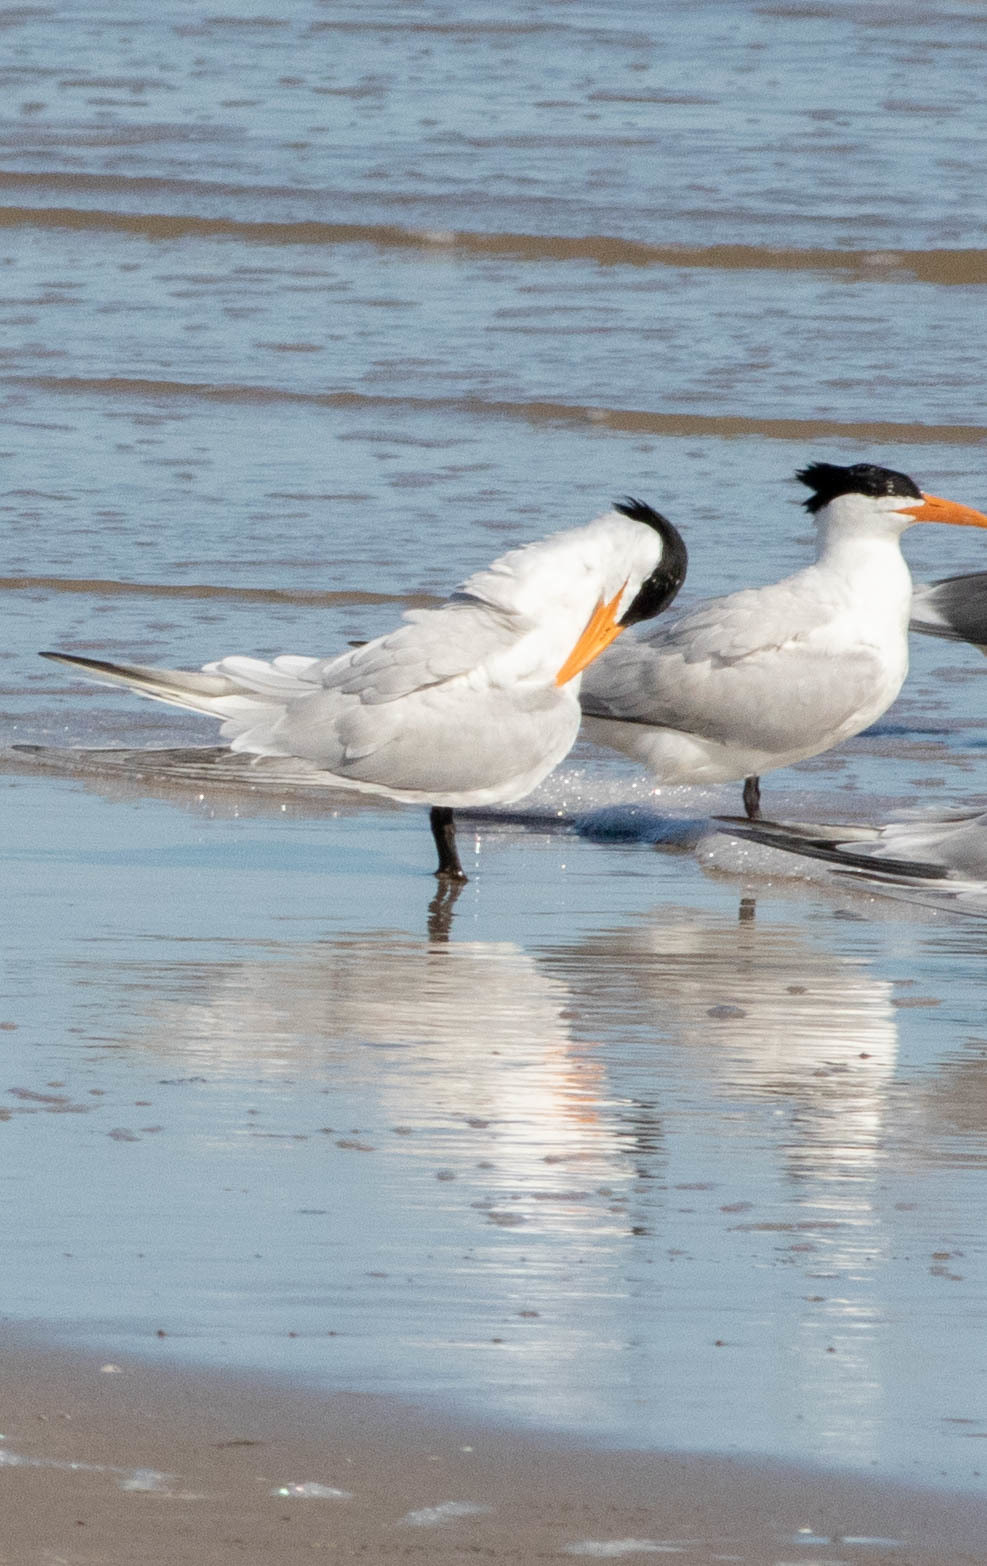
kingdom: Animalia
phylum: Chordata
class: Aves
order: Charadriiformes
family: Laridae
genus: Thalasseus
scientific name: Thalasseus maximus
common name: Royal tern
